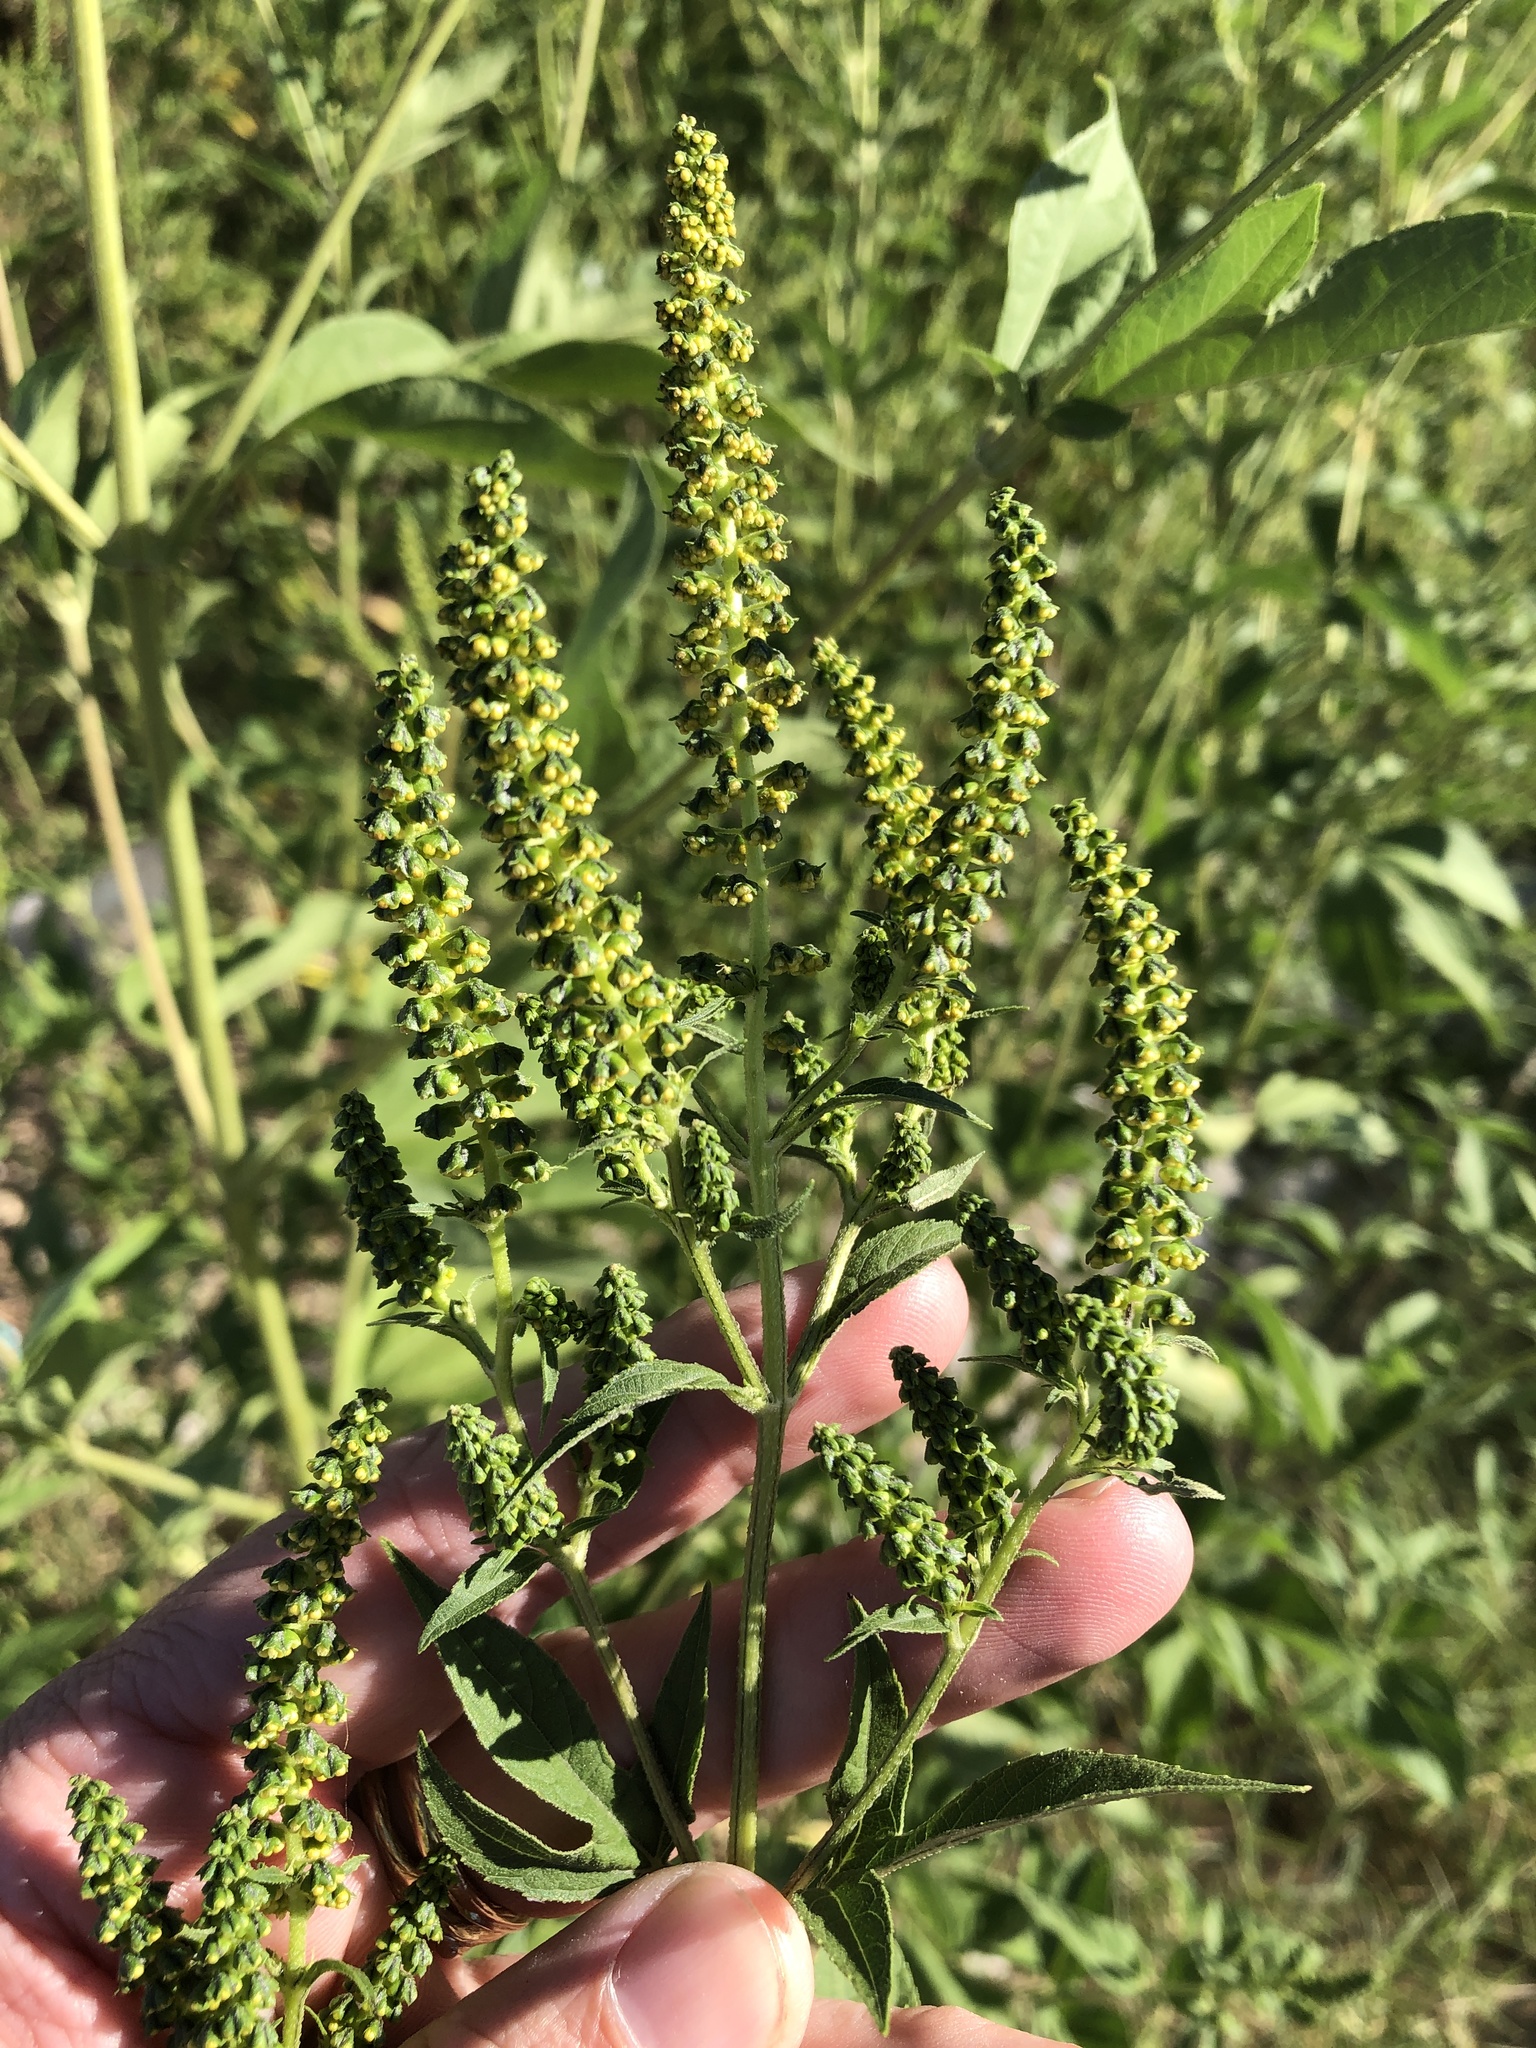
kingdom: Plantae
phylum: Tracheophyta
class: Magnoliopsida
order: Asterales
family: Asteraceae
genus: Ambrosia
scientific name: Ambrosia trifida
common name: Giant ragweed
